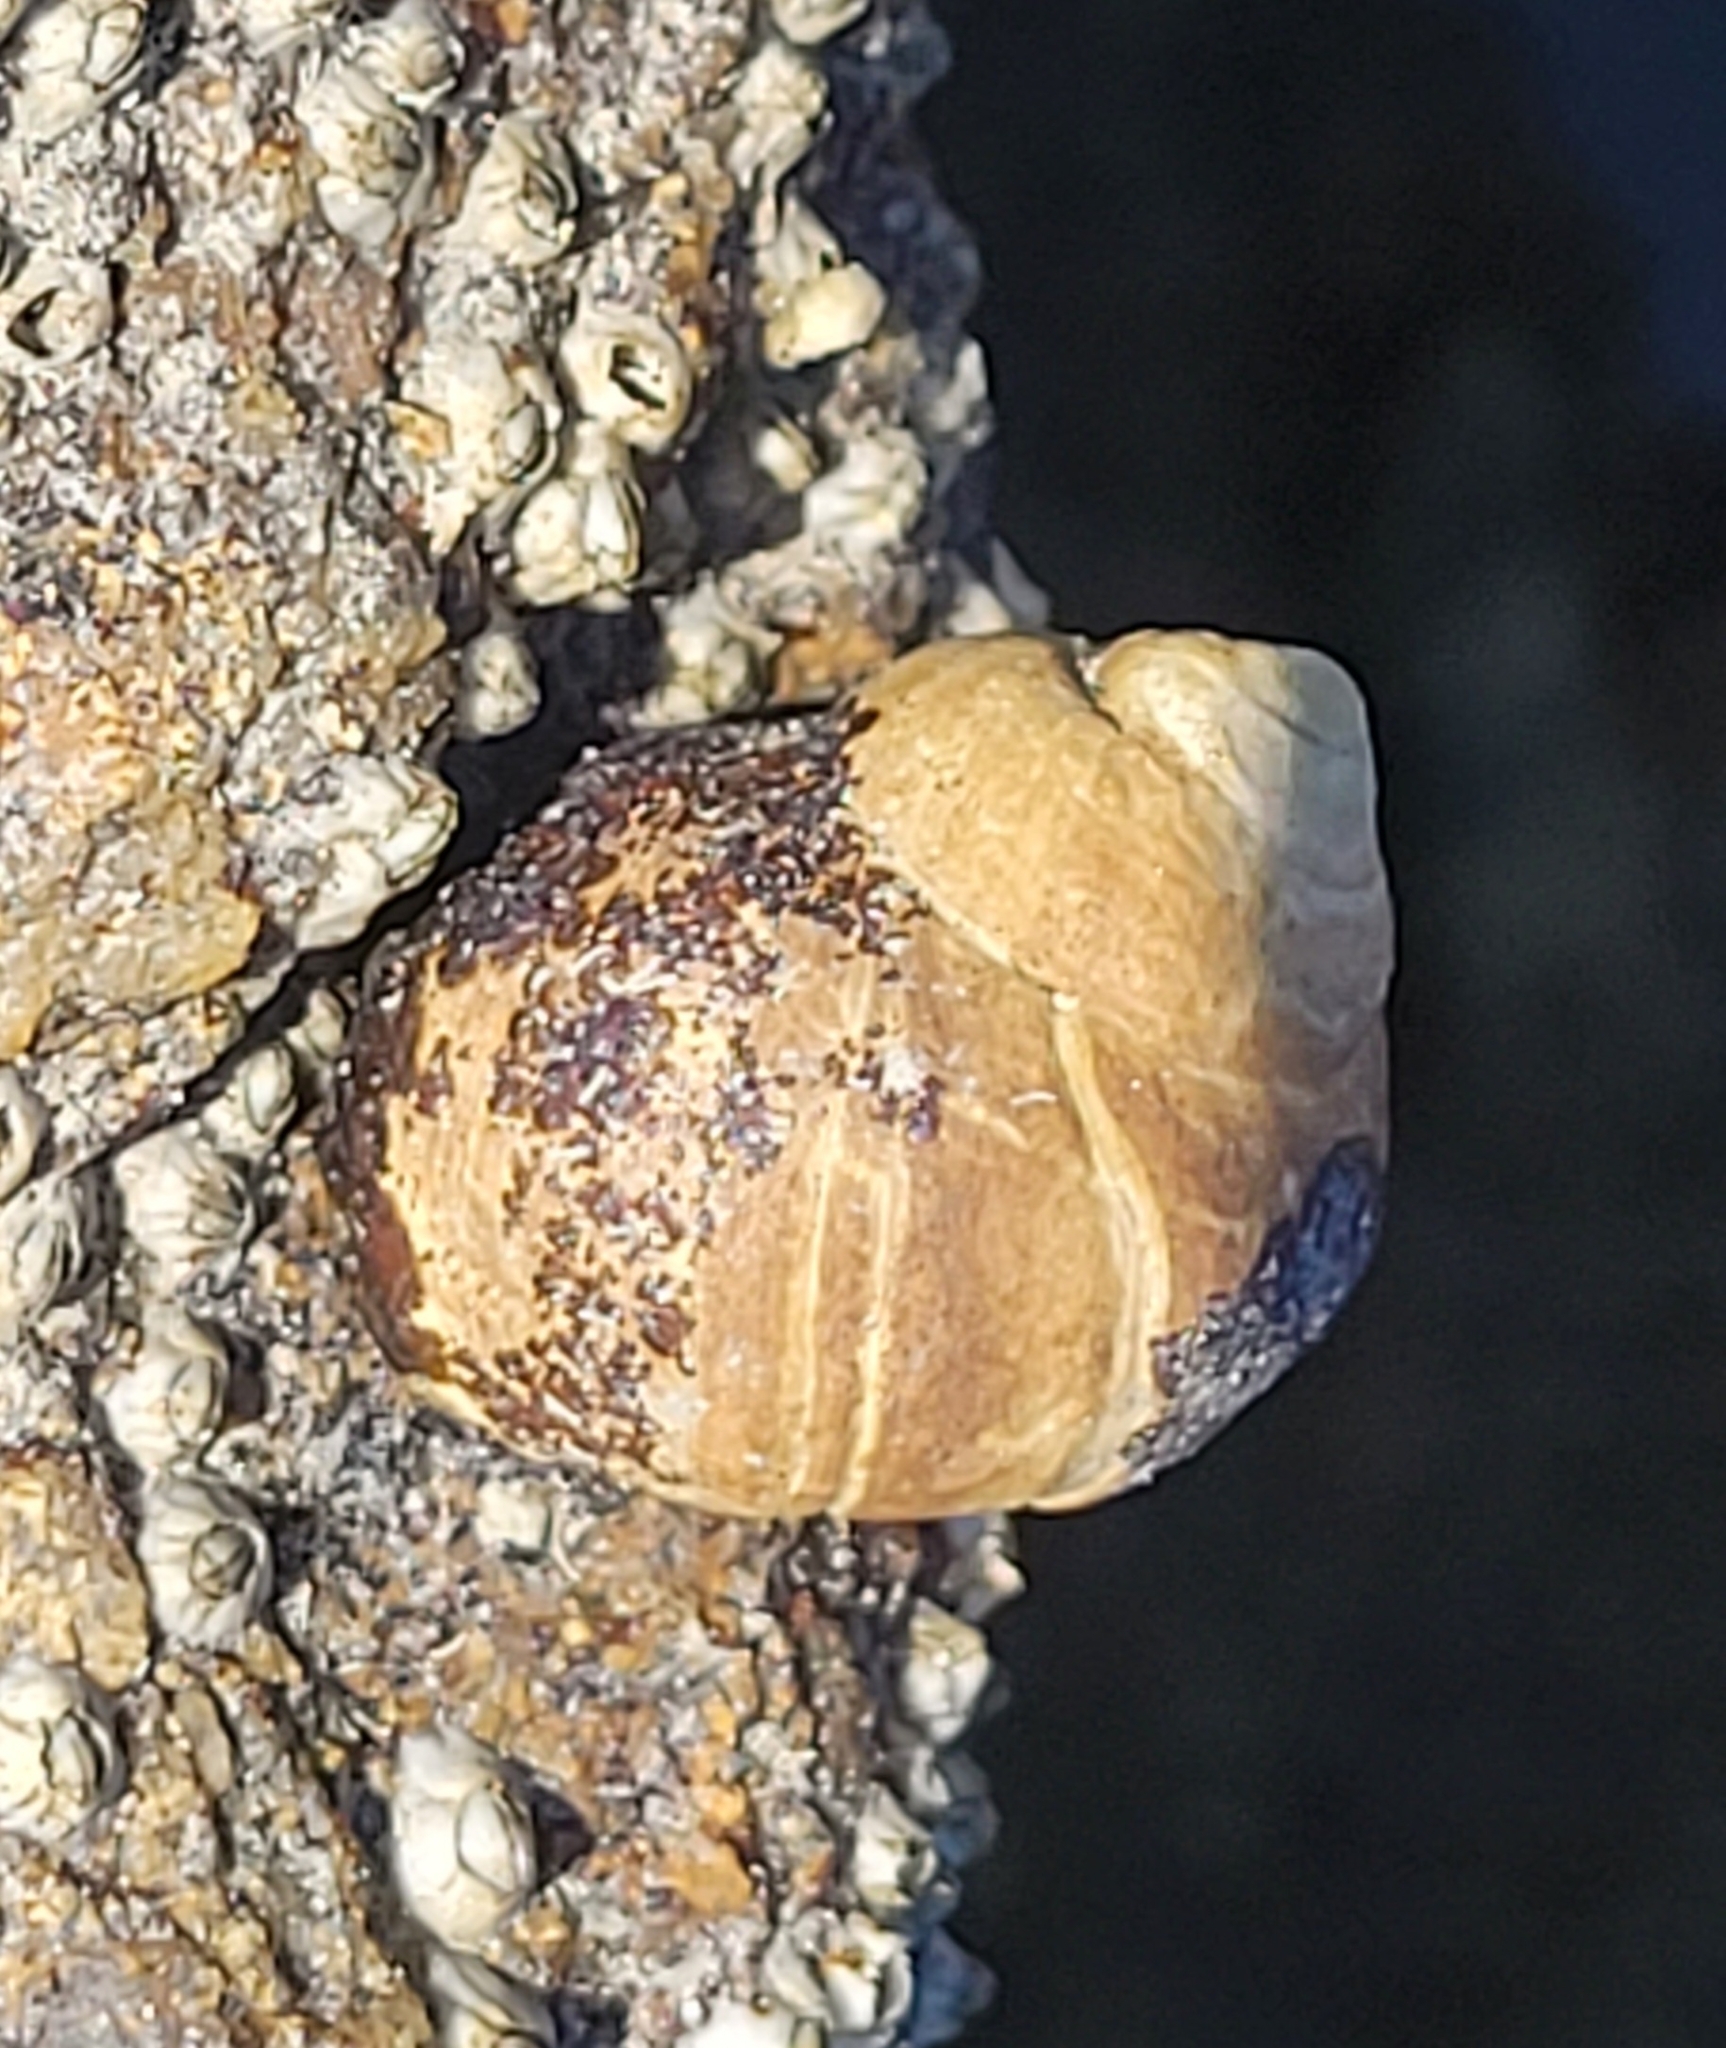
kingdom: Animalia
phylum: Mollusca
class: Gastropoda
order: Littorinimorpha
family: Littorinidae
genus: Littorina
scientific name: Littorina littorea
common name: Common periwinkle
